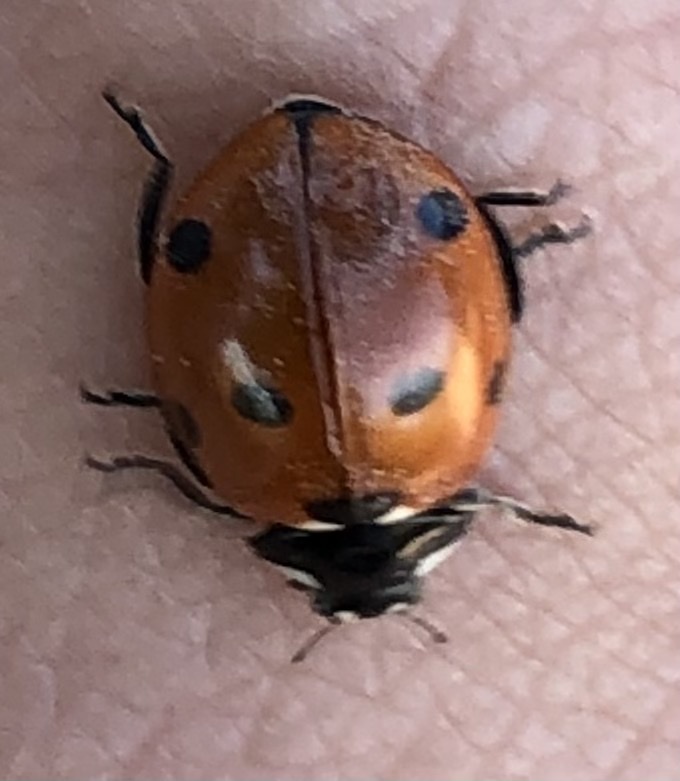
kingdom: Animalia
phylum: Arthropoda
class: Insecta
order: Coleoptera
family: Coccinellidae
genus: Coccinella
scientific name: Coccinella septempunctata
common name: Sevenspotted lady beetle
